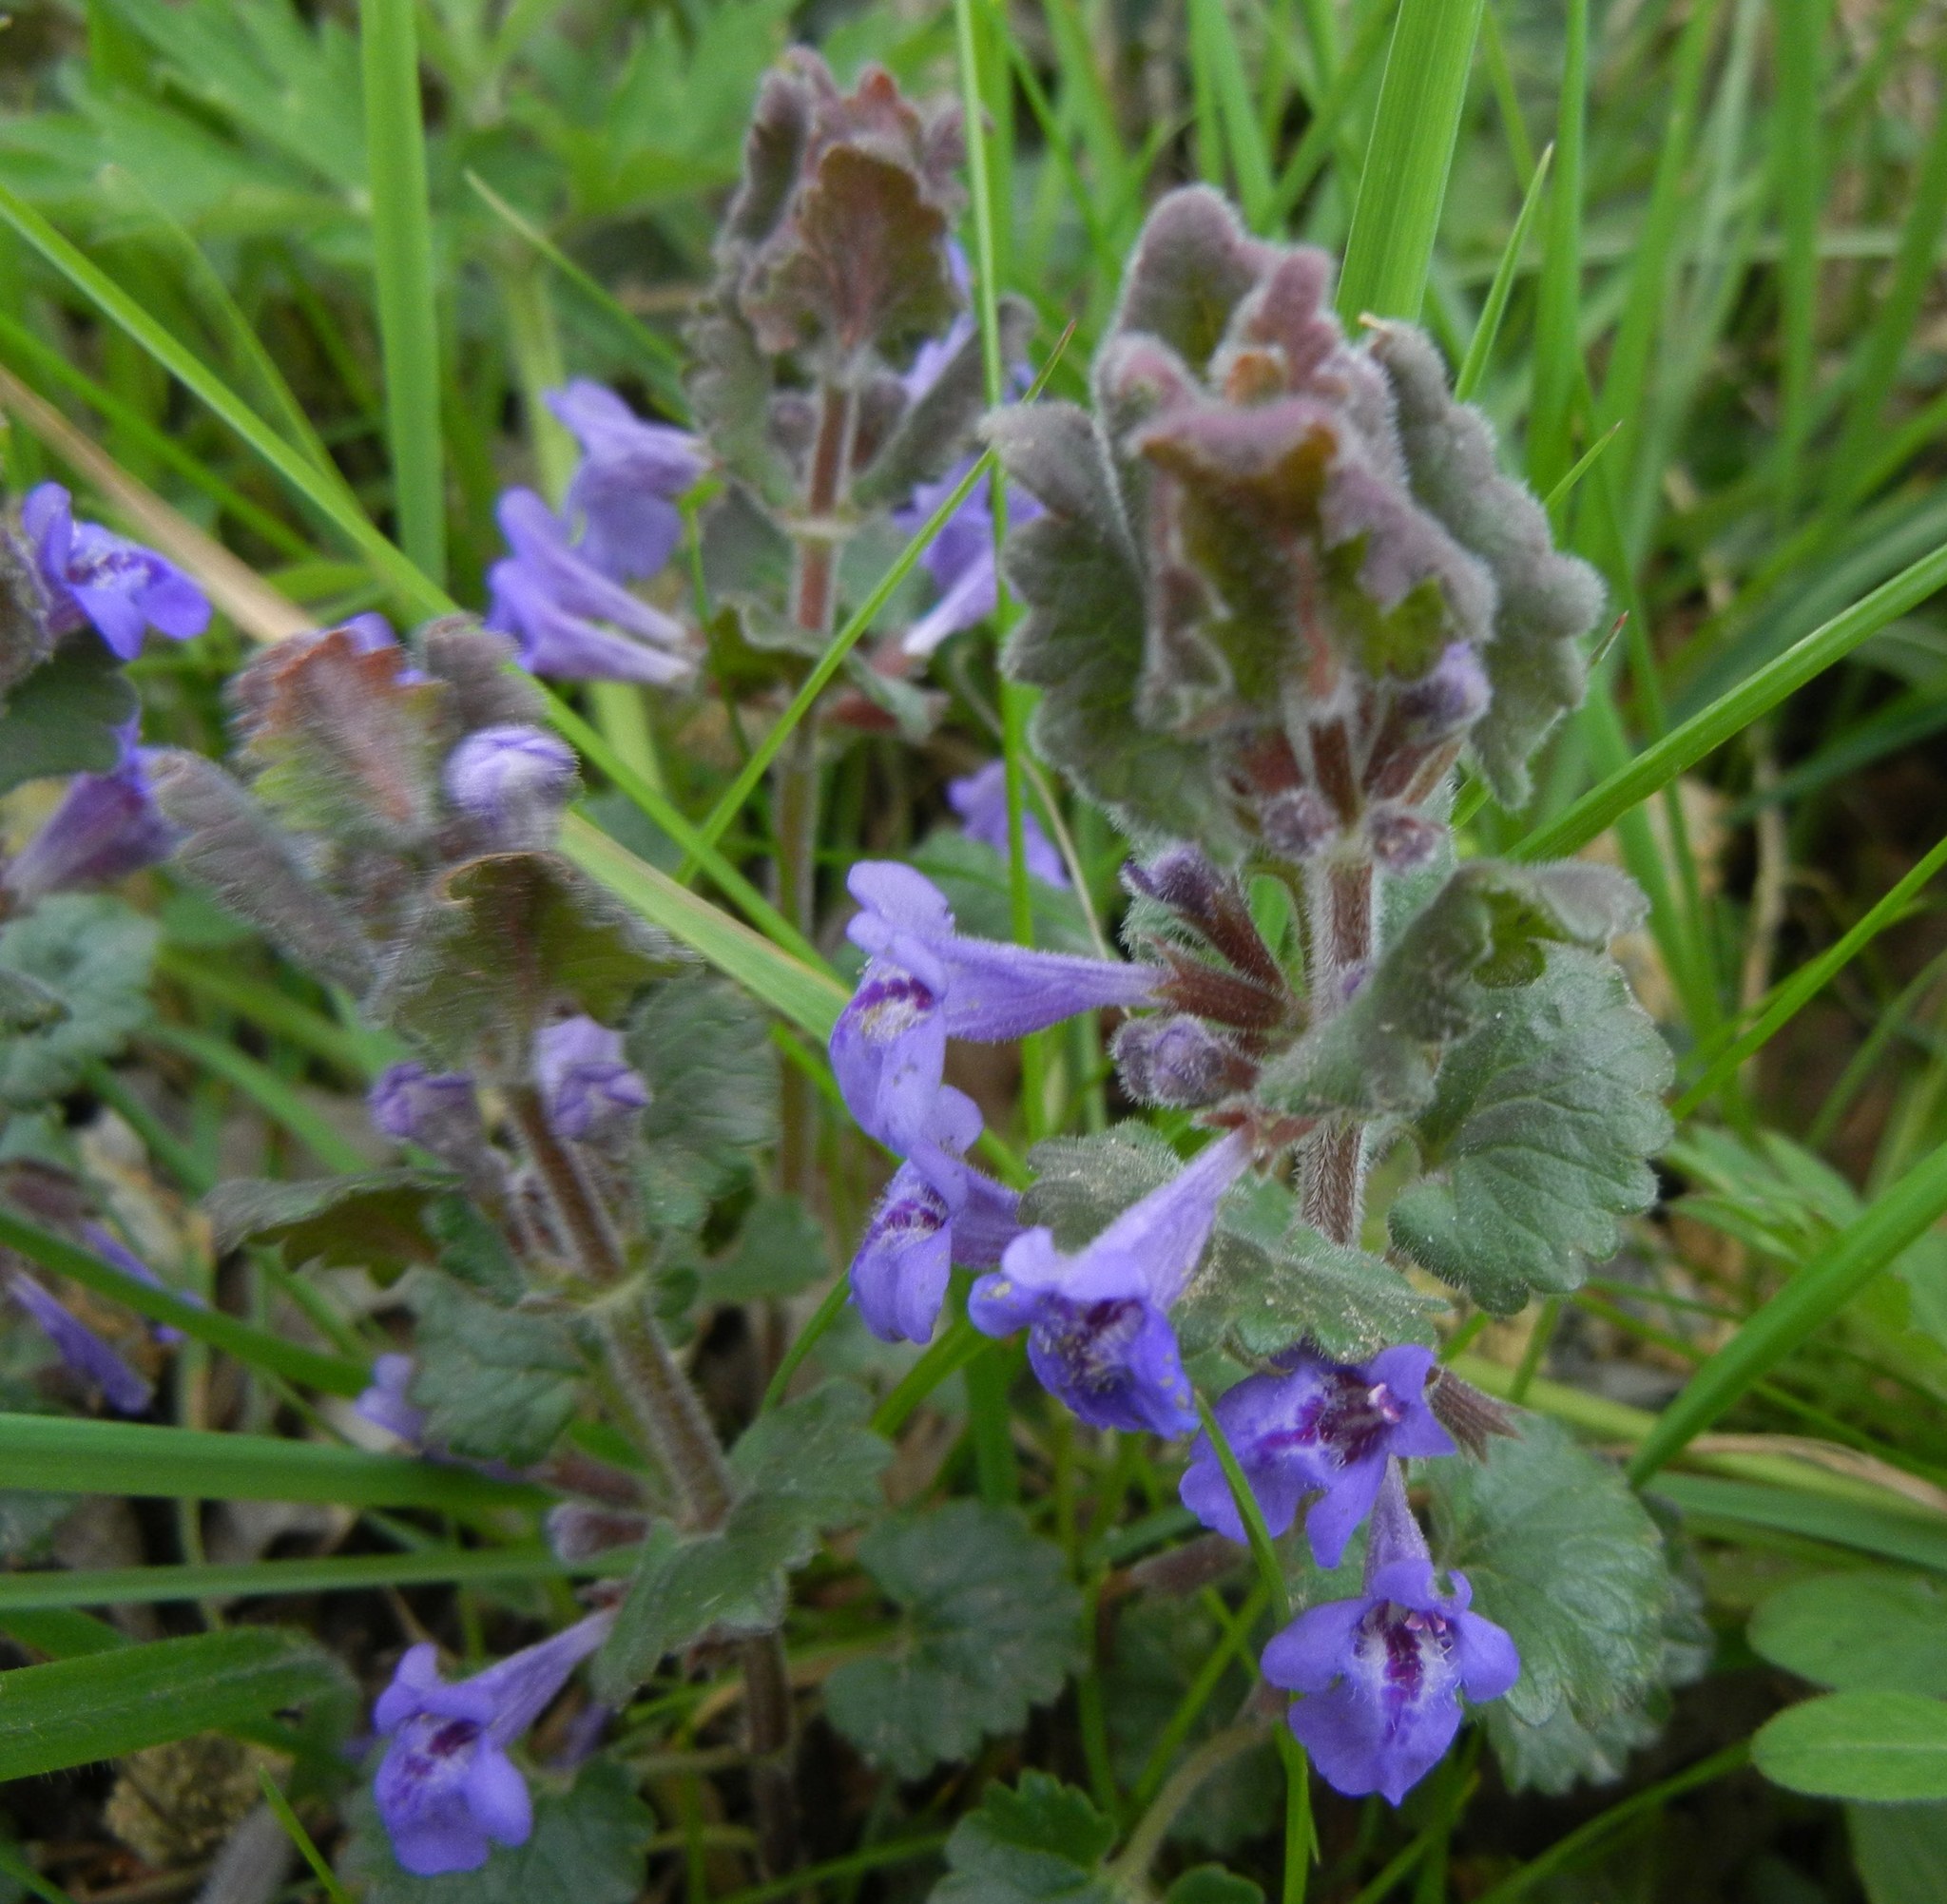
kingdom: Plantae
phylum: Tracheophyta
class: Magnoliopsida
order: Lamiales
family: Lamiaceae
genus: Glechoma
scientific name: Glechoma hederacea
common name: Ground ivy
